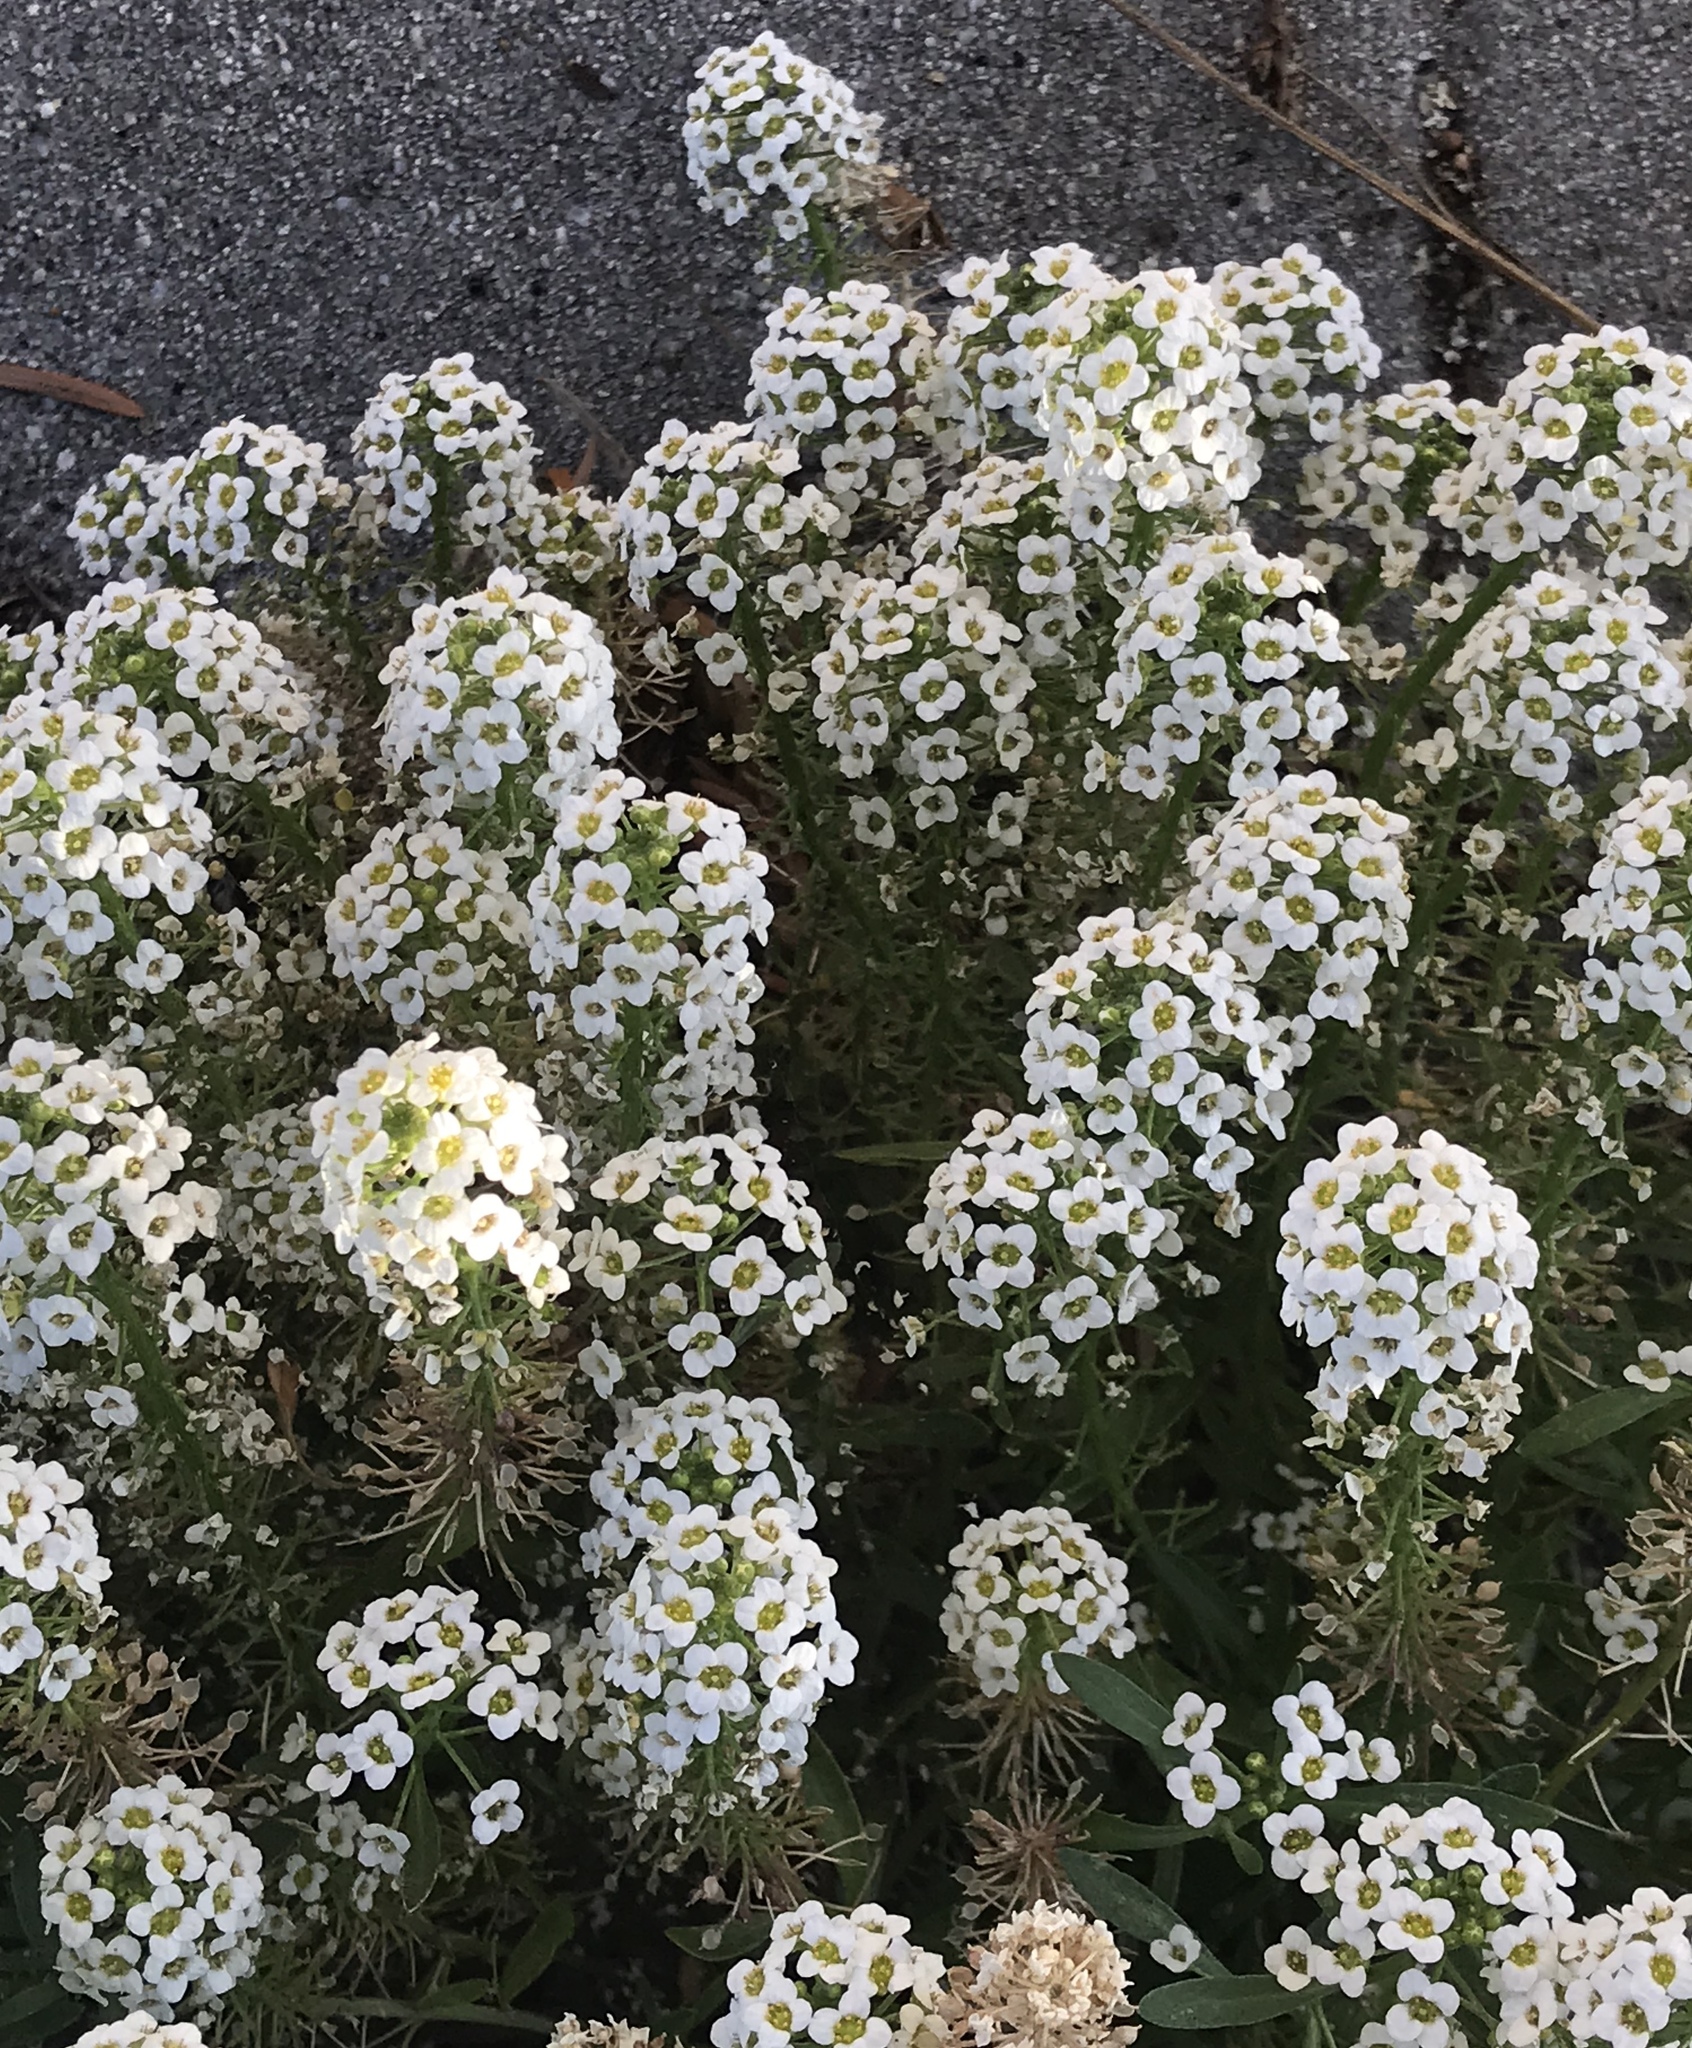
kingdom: Plantae
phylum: Tracheophyta
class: Magnoliopsida
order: Brassicales
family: Brassicaceae
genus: Lobularia
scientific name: Lobularia maritima
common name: Sweet alison
